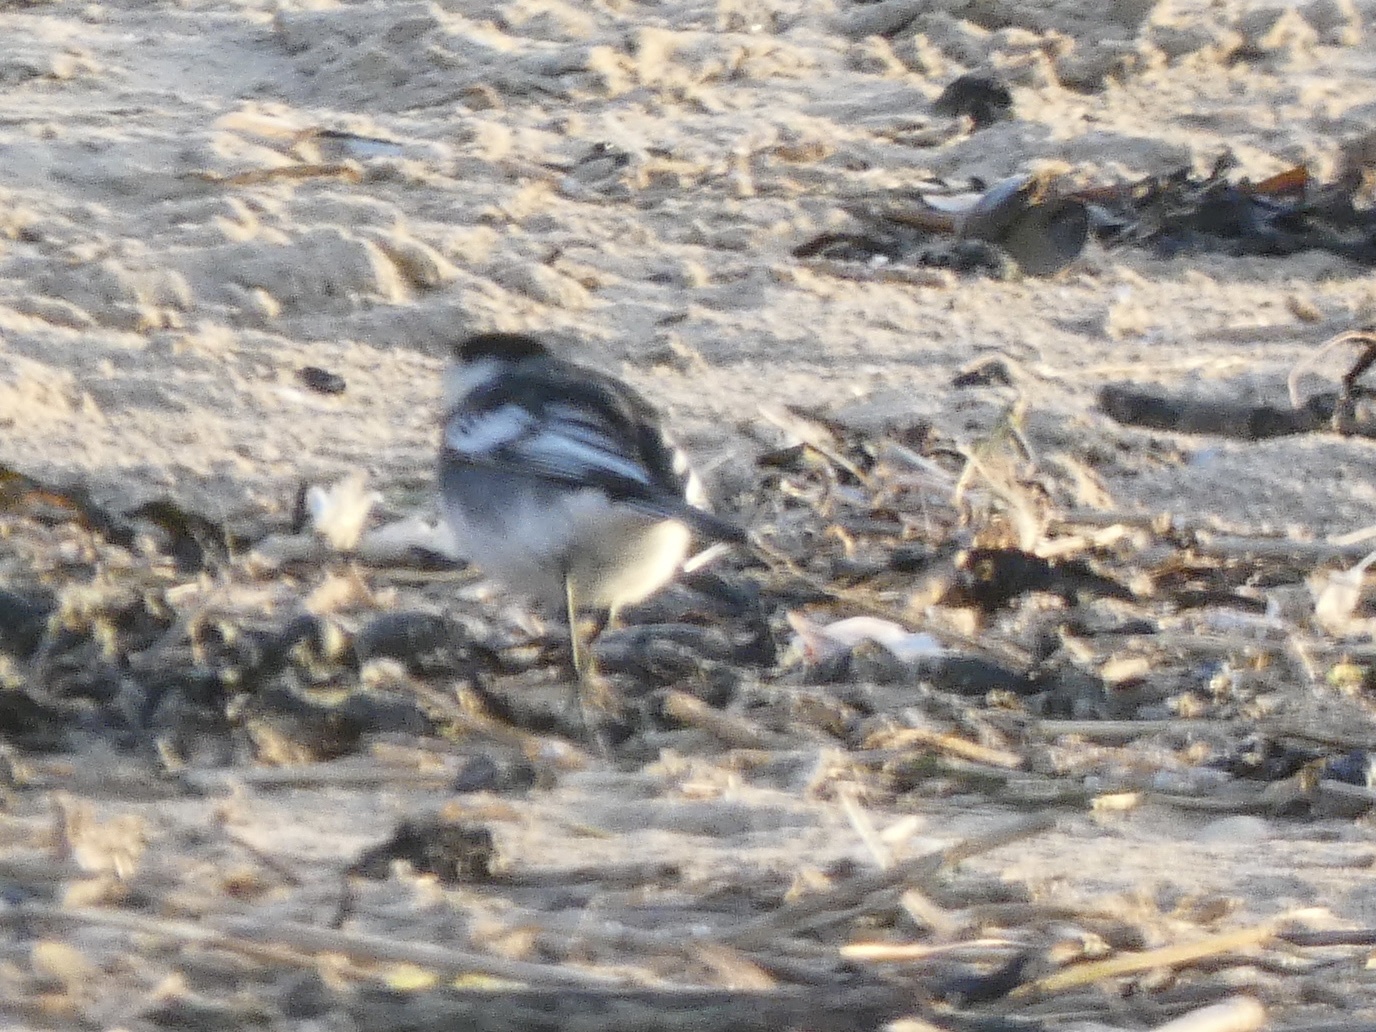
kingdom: Animalia
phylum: Chordata
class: Aves
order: Passeriformes
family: Motacillidae
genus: Motacilla
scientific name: Motacilla alba
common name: White wagtail
